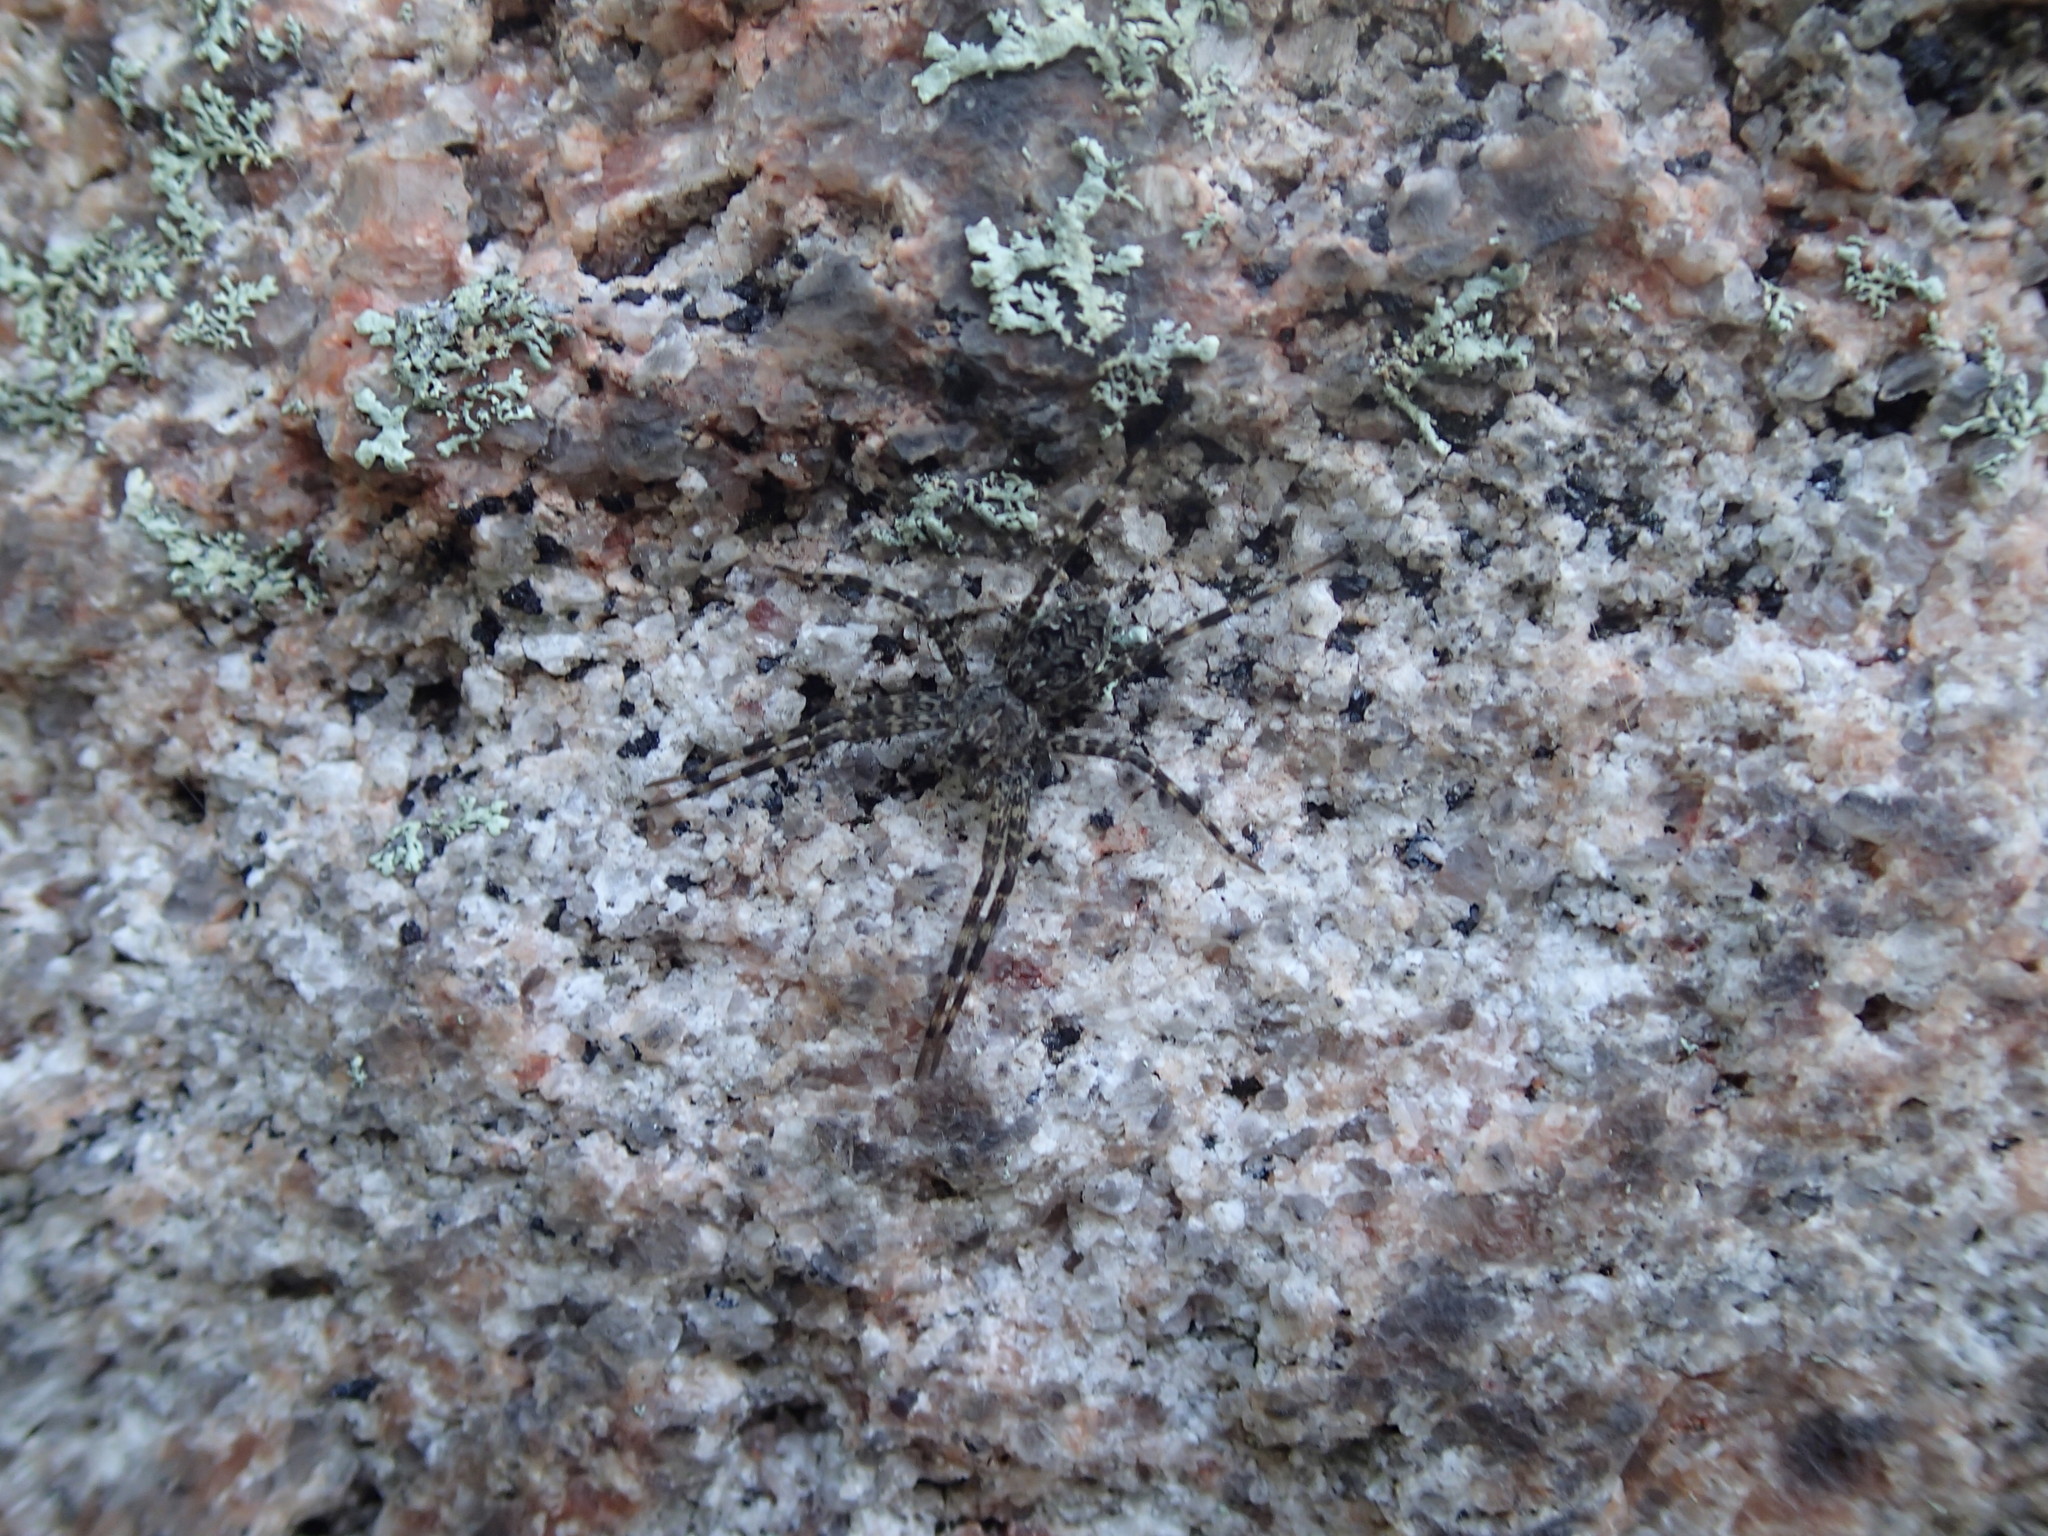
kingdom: Animalia
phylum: Arthropoda
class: Arachnida
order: Araneae
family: Pisauridae
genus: Dolomedes
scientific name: Dolomedes tenebrosus
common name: Dark fishing spider
